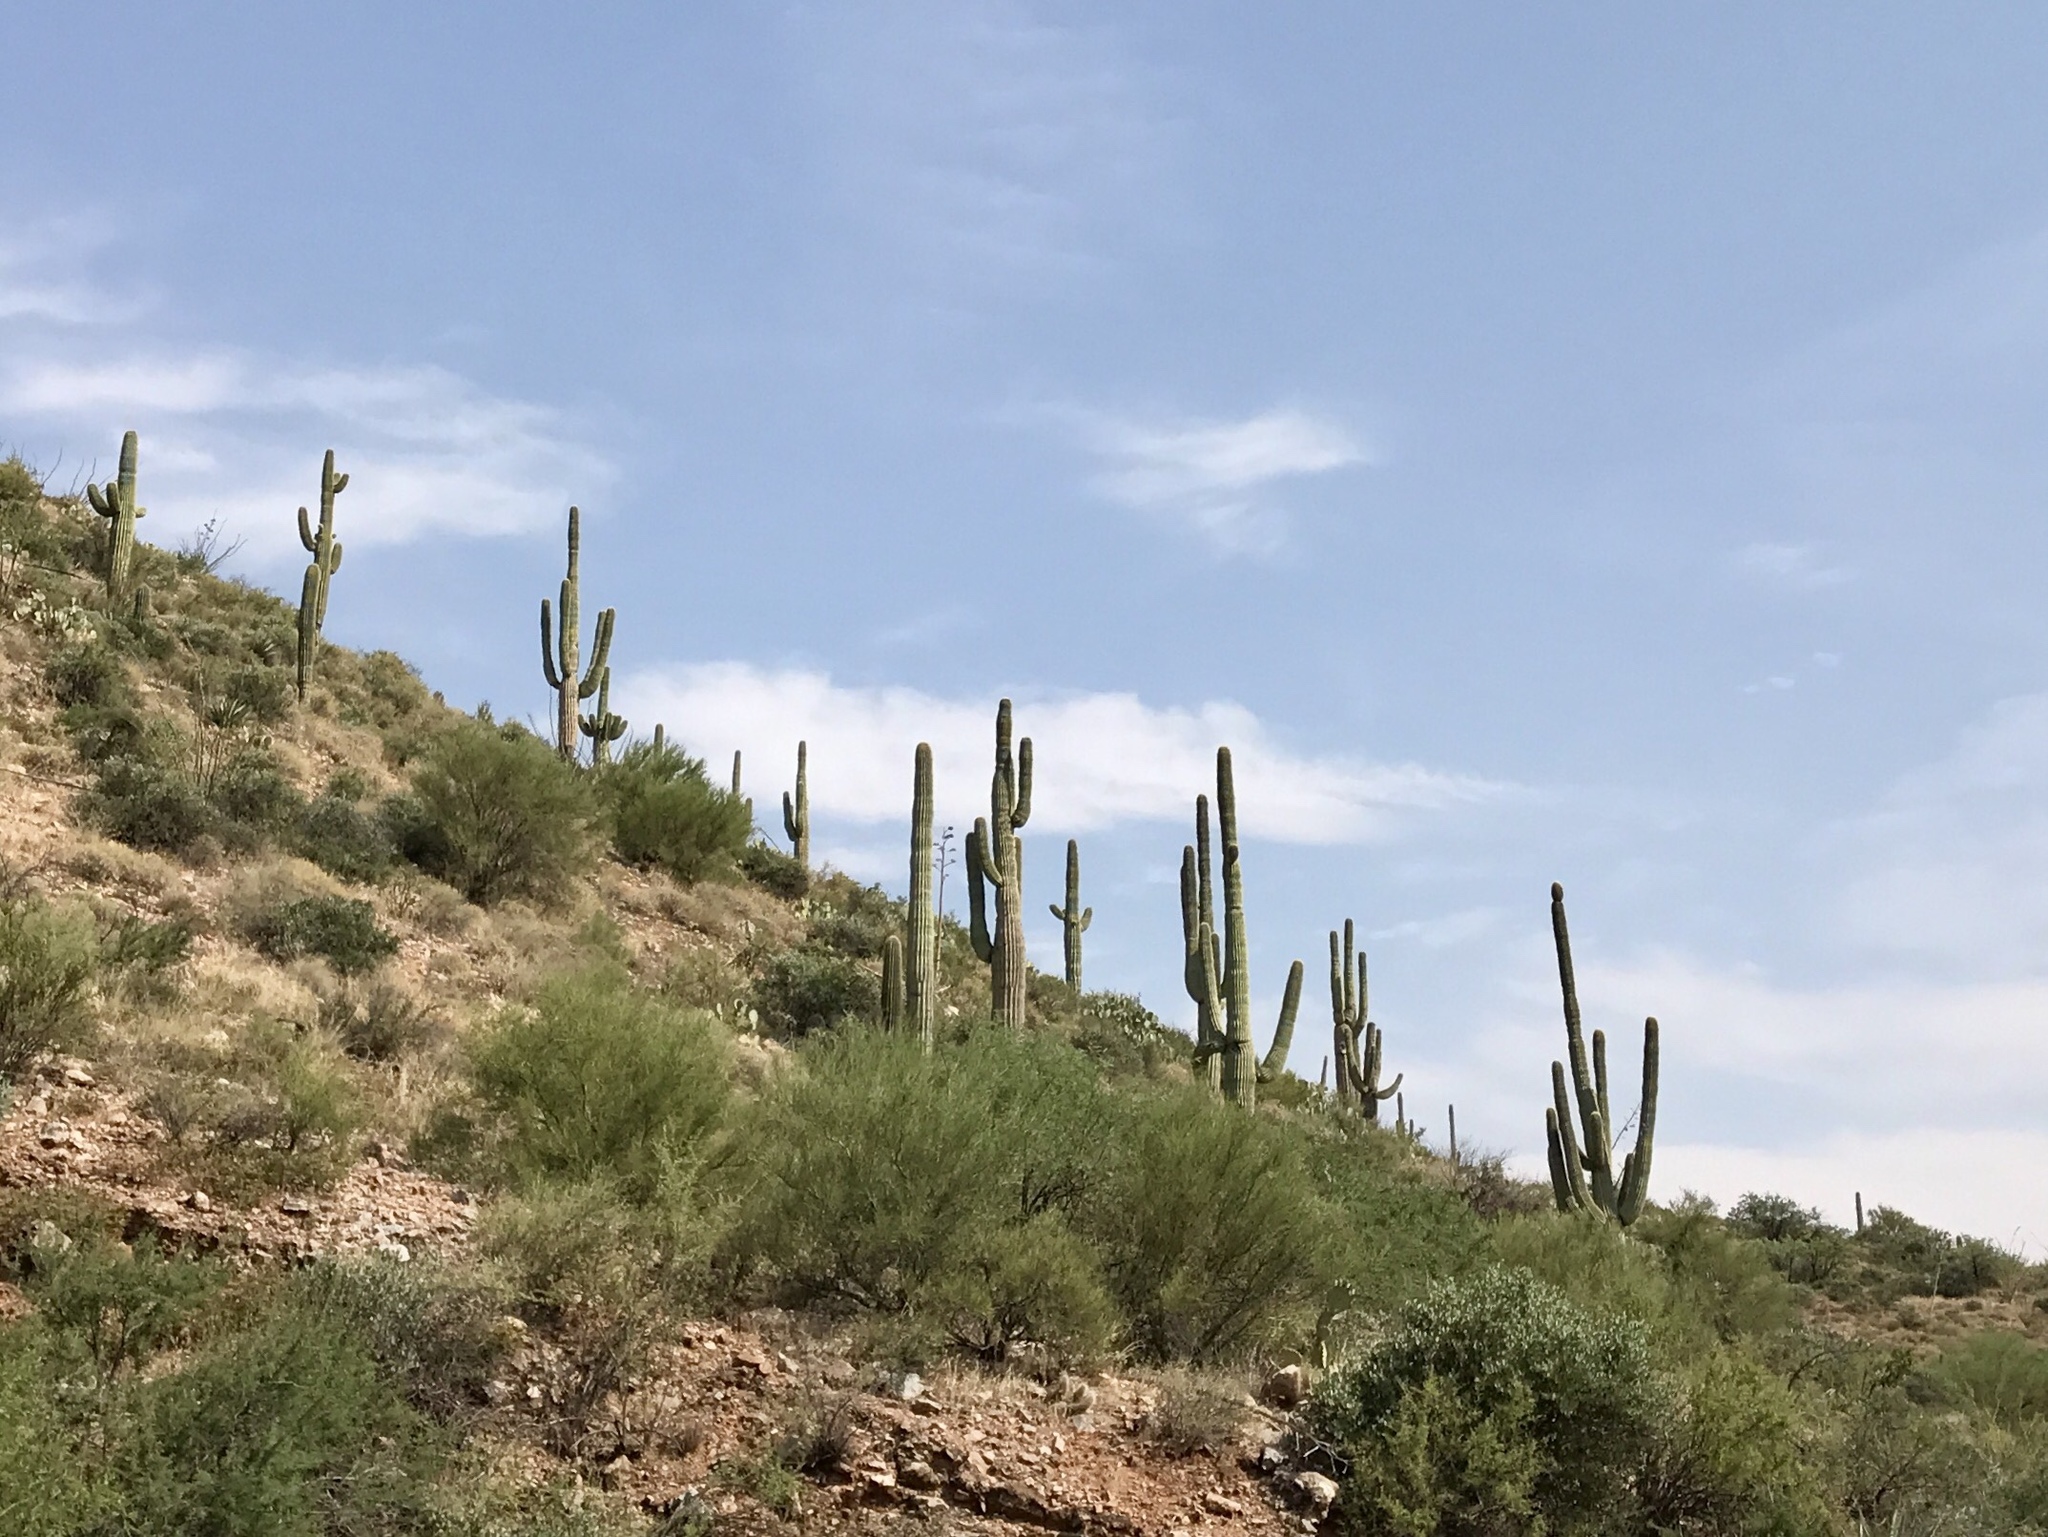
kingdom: Plantae
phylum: Tracheophyta
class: Magnoliopsida
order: Caryophyllales
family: Cactaceae
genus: Carnegiea
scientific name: Carnegiea gigantea
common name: Saguaro
